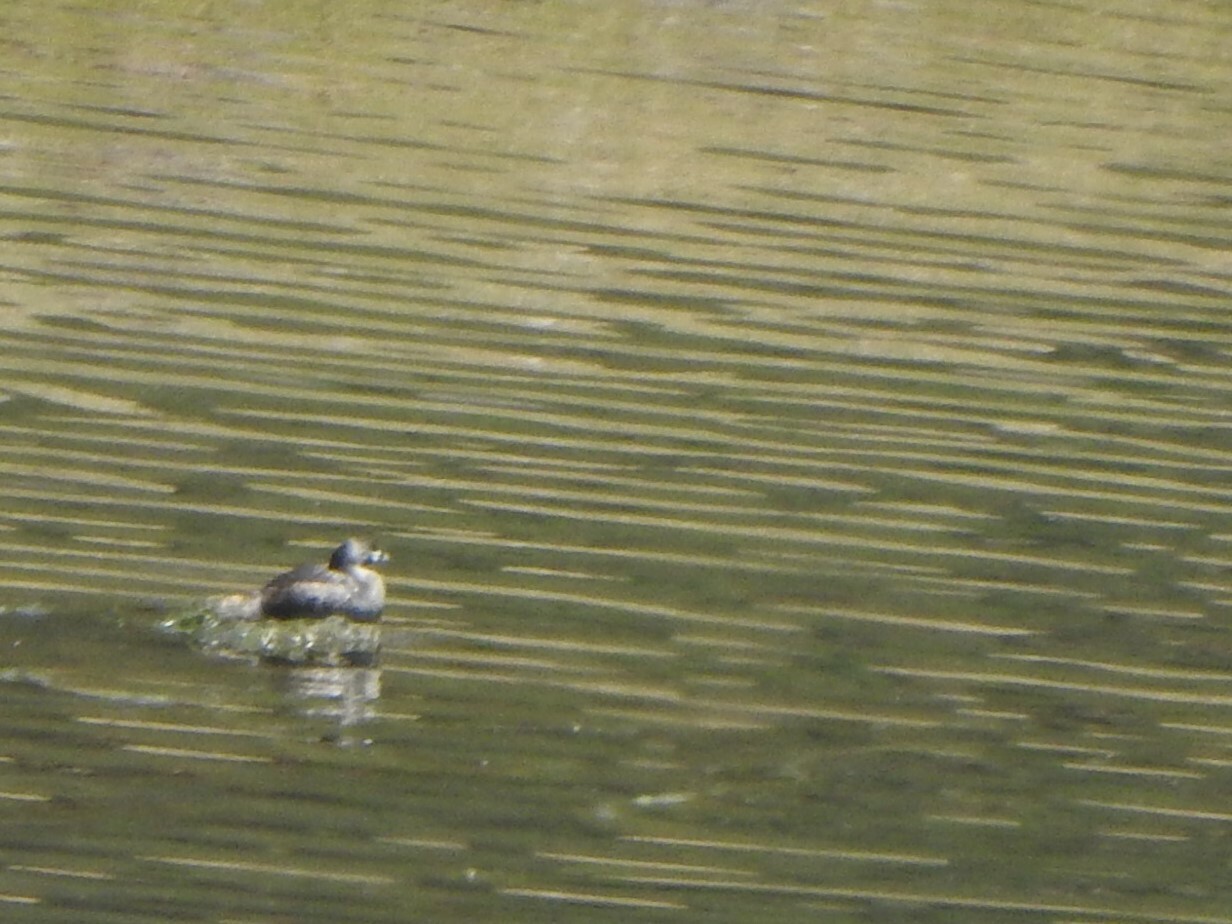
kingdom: Animalia
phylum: Chordata
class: Aves
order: Podicipediformes
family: Podicipedidae
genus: Podilymbus
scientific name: Podilymbus podiceps
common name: Pied-billed grebe
